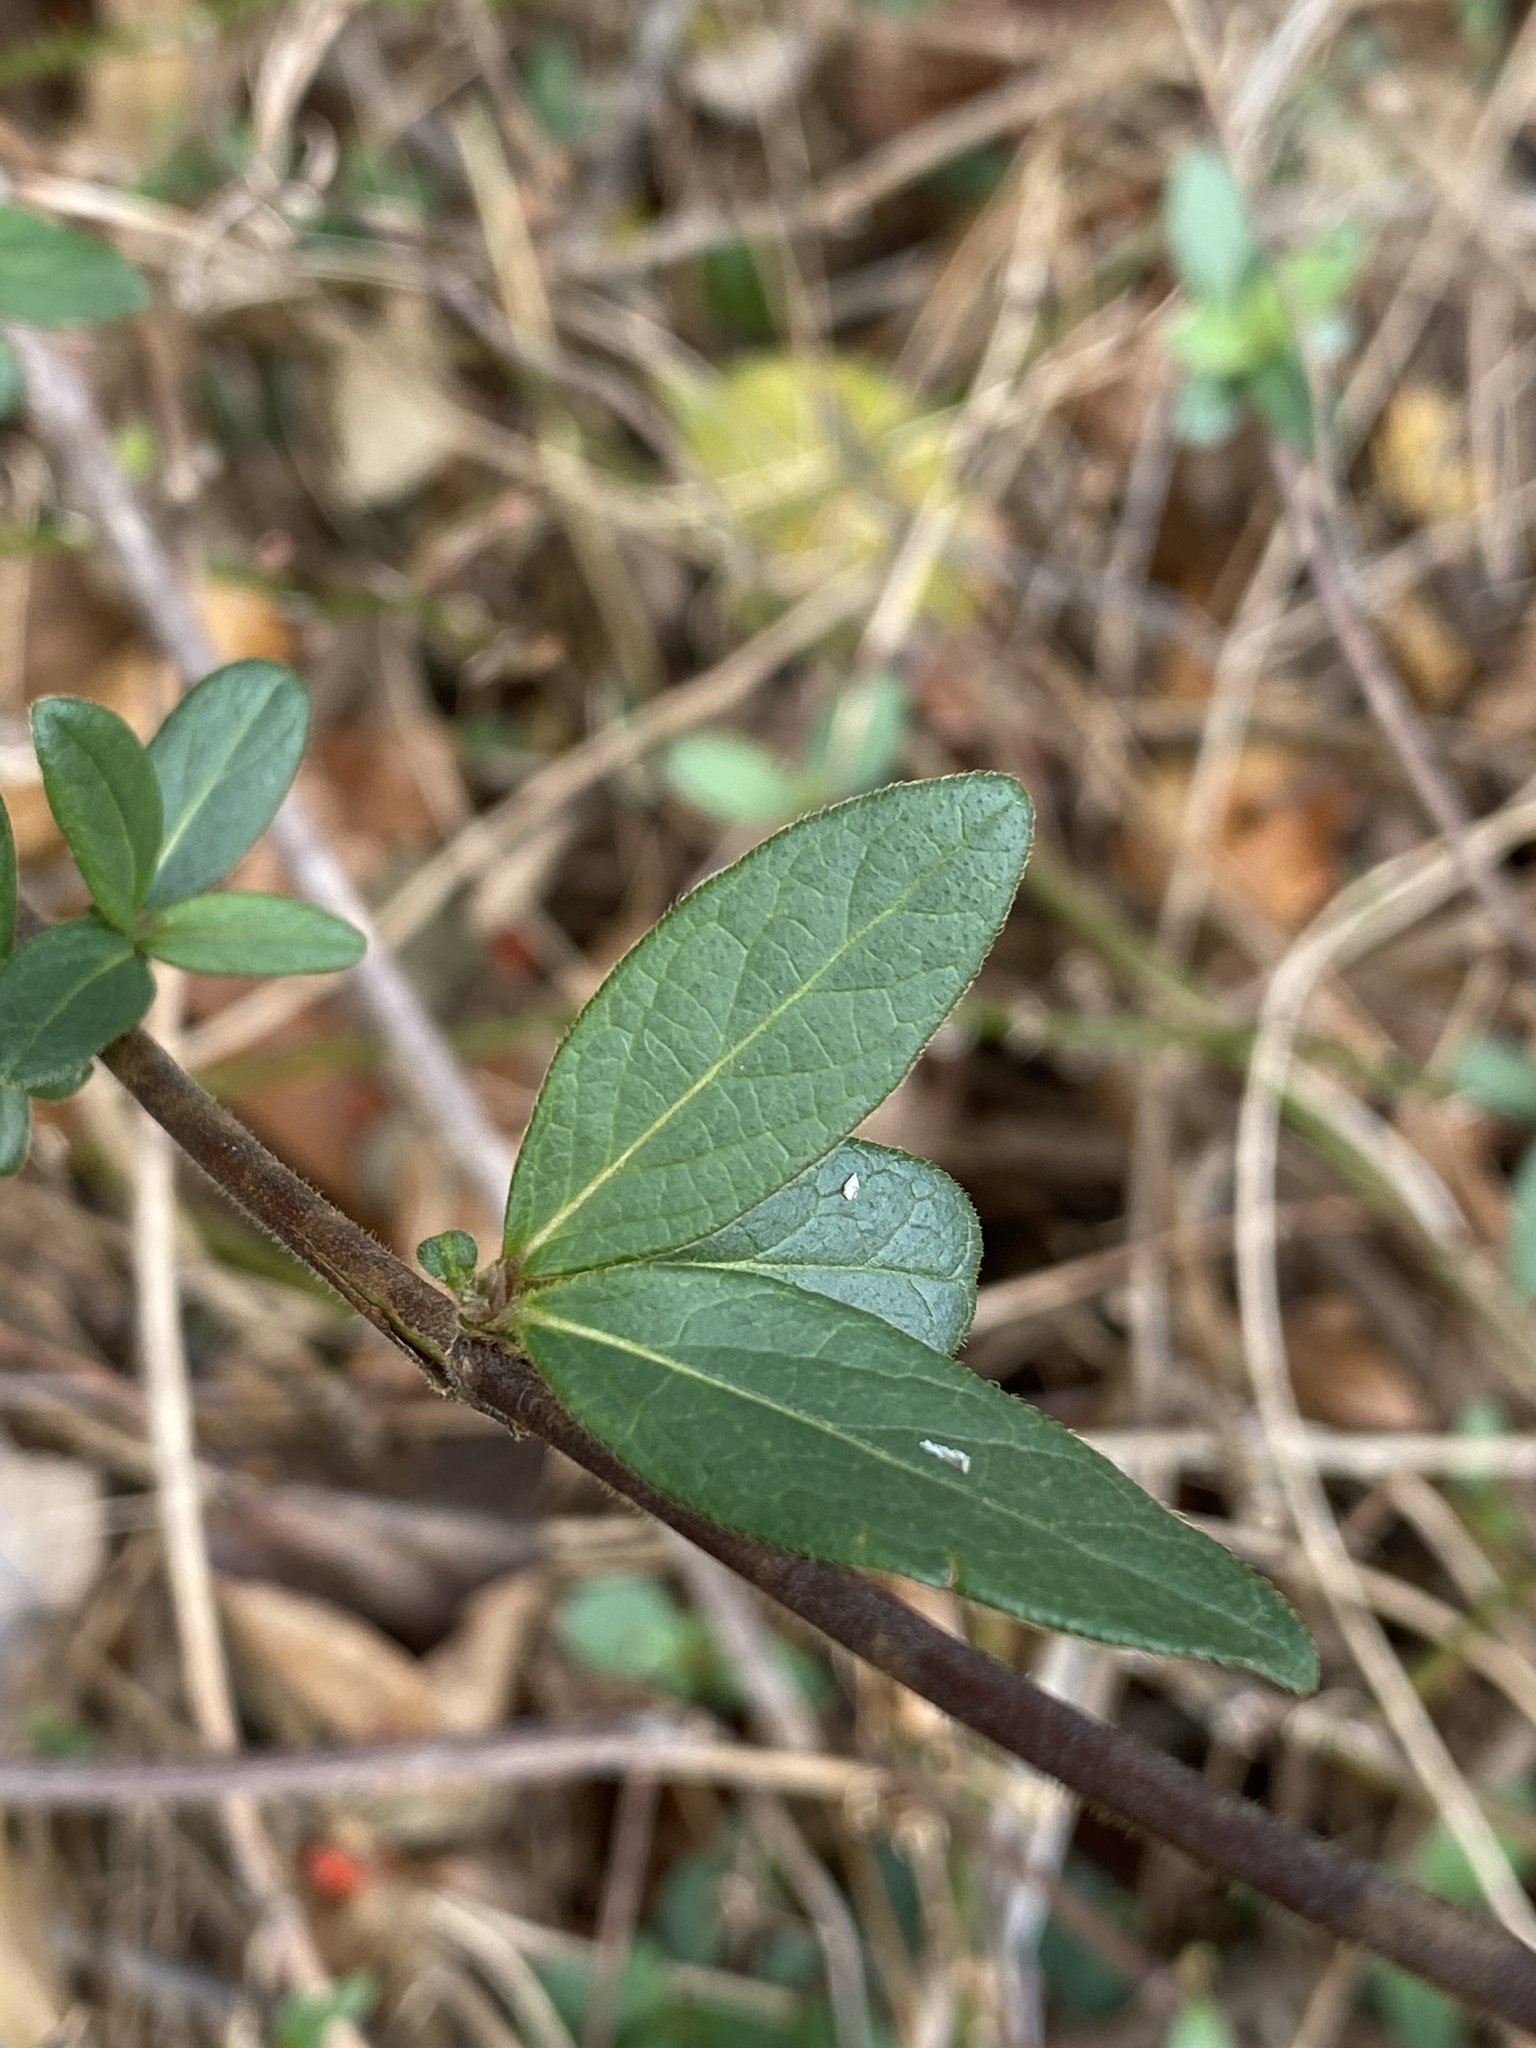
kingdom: Plantae
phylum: Tracheophyta
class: Magnoliopsida
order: Dipsacales
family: Caprifoliaceae
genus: Lonicera
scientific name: Lonicera japonica
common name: Japanese honeysuckle
